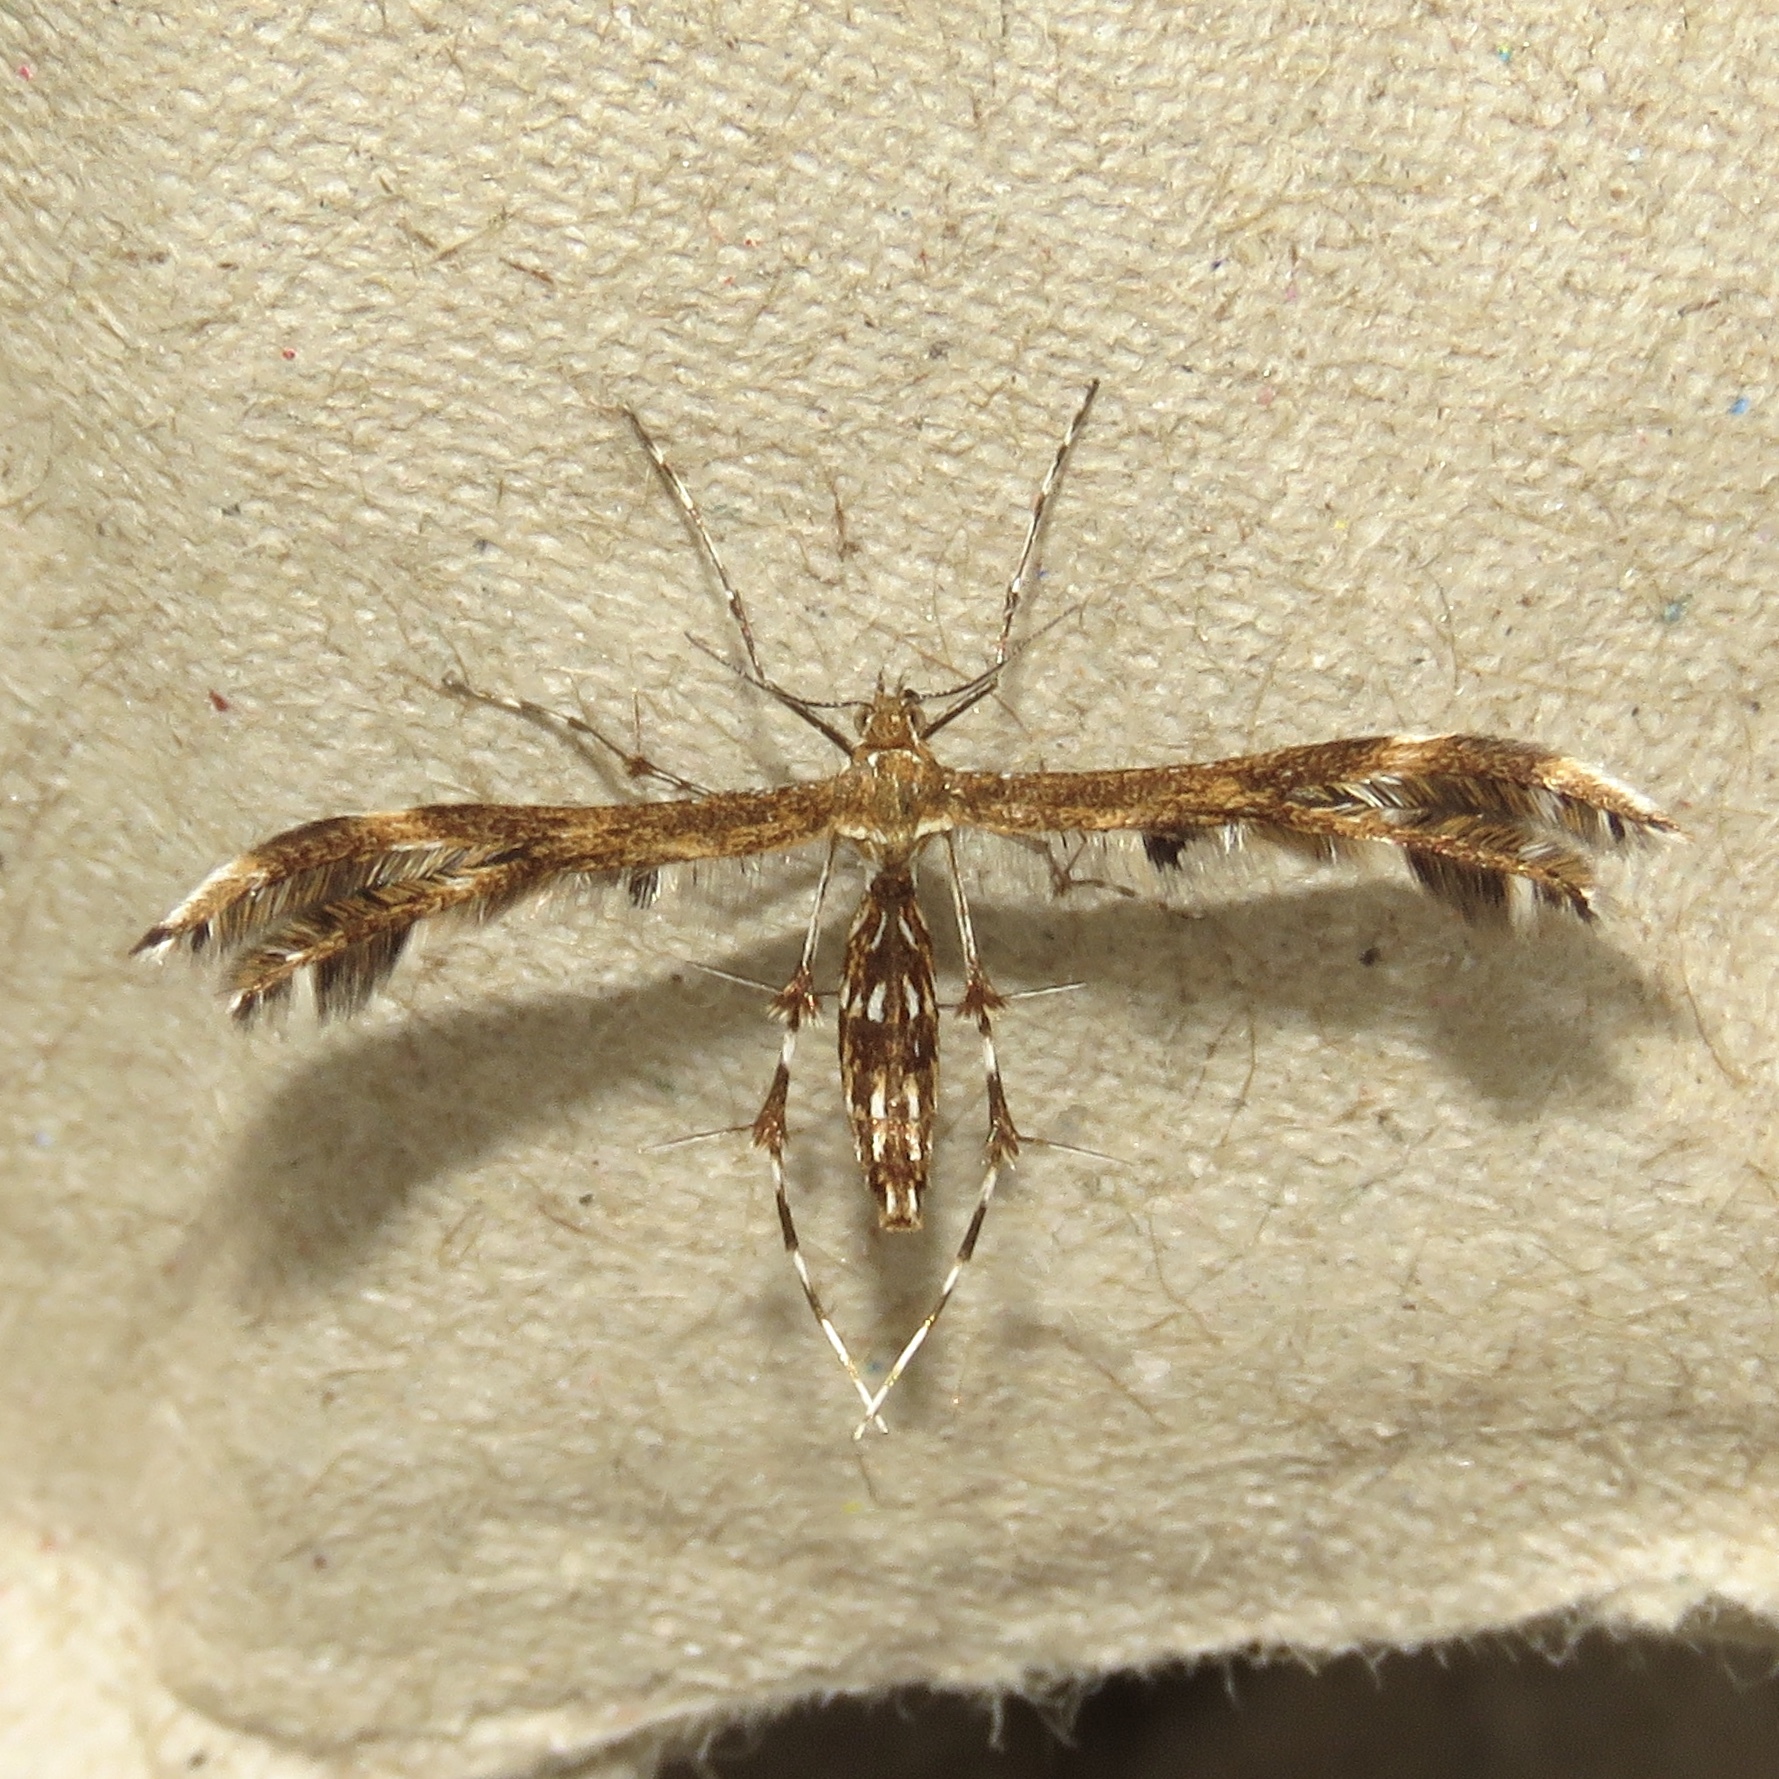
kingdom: Animalia
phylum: Arthropoda
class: Insecta
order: Lepidoptera
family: Pterophoridae
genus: Dejongia
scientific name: Dejongia lobidactylus
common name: Lobed plume moth
